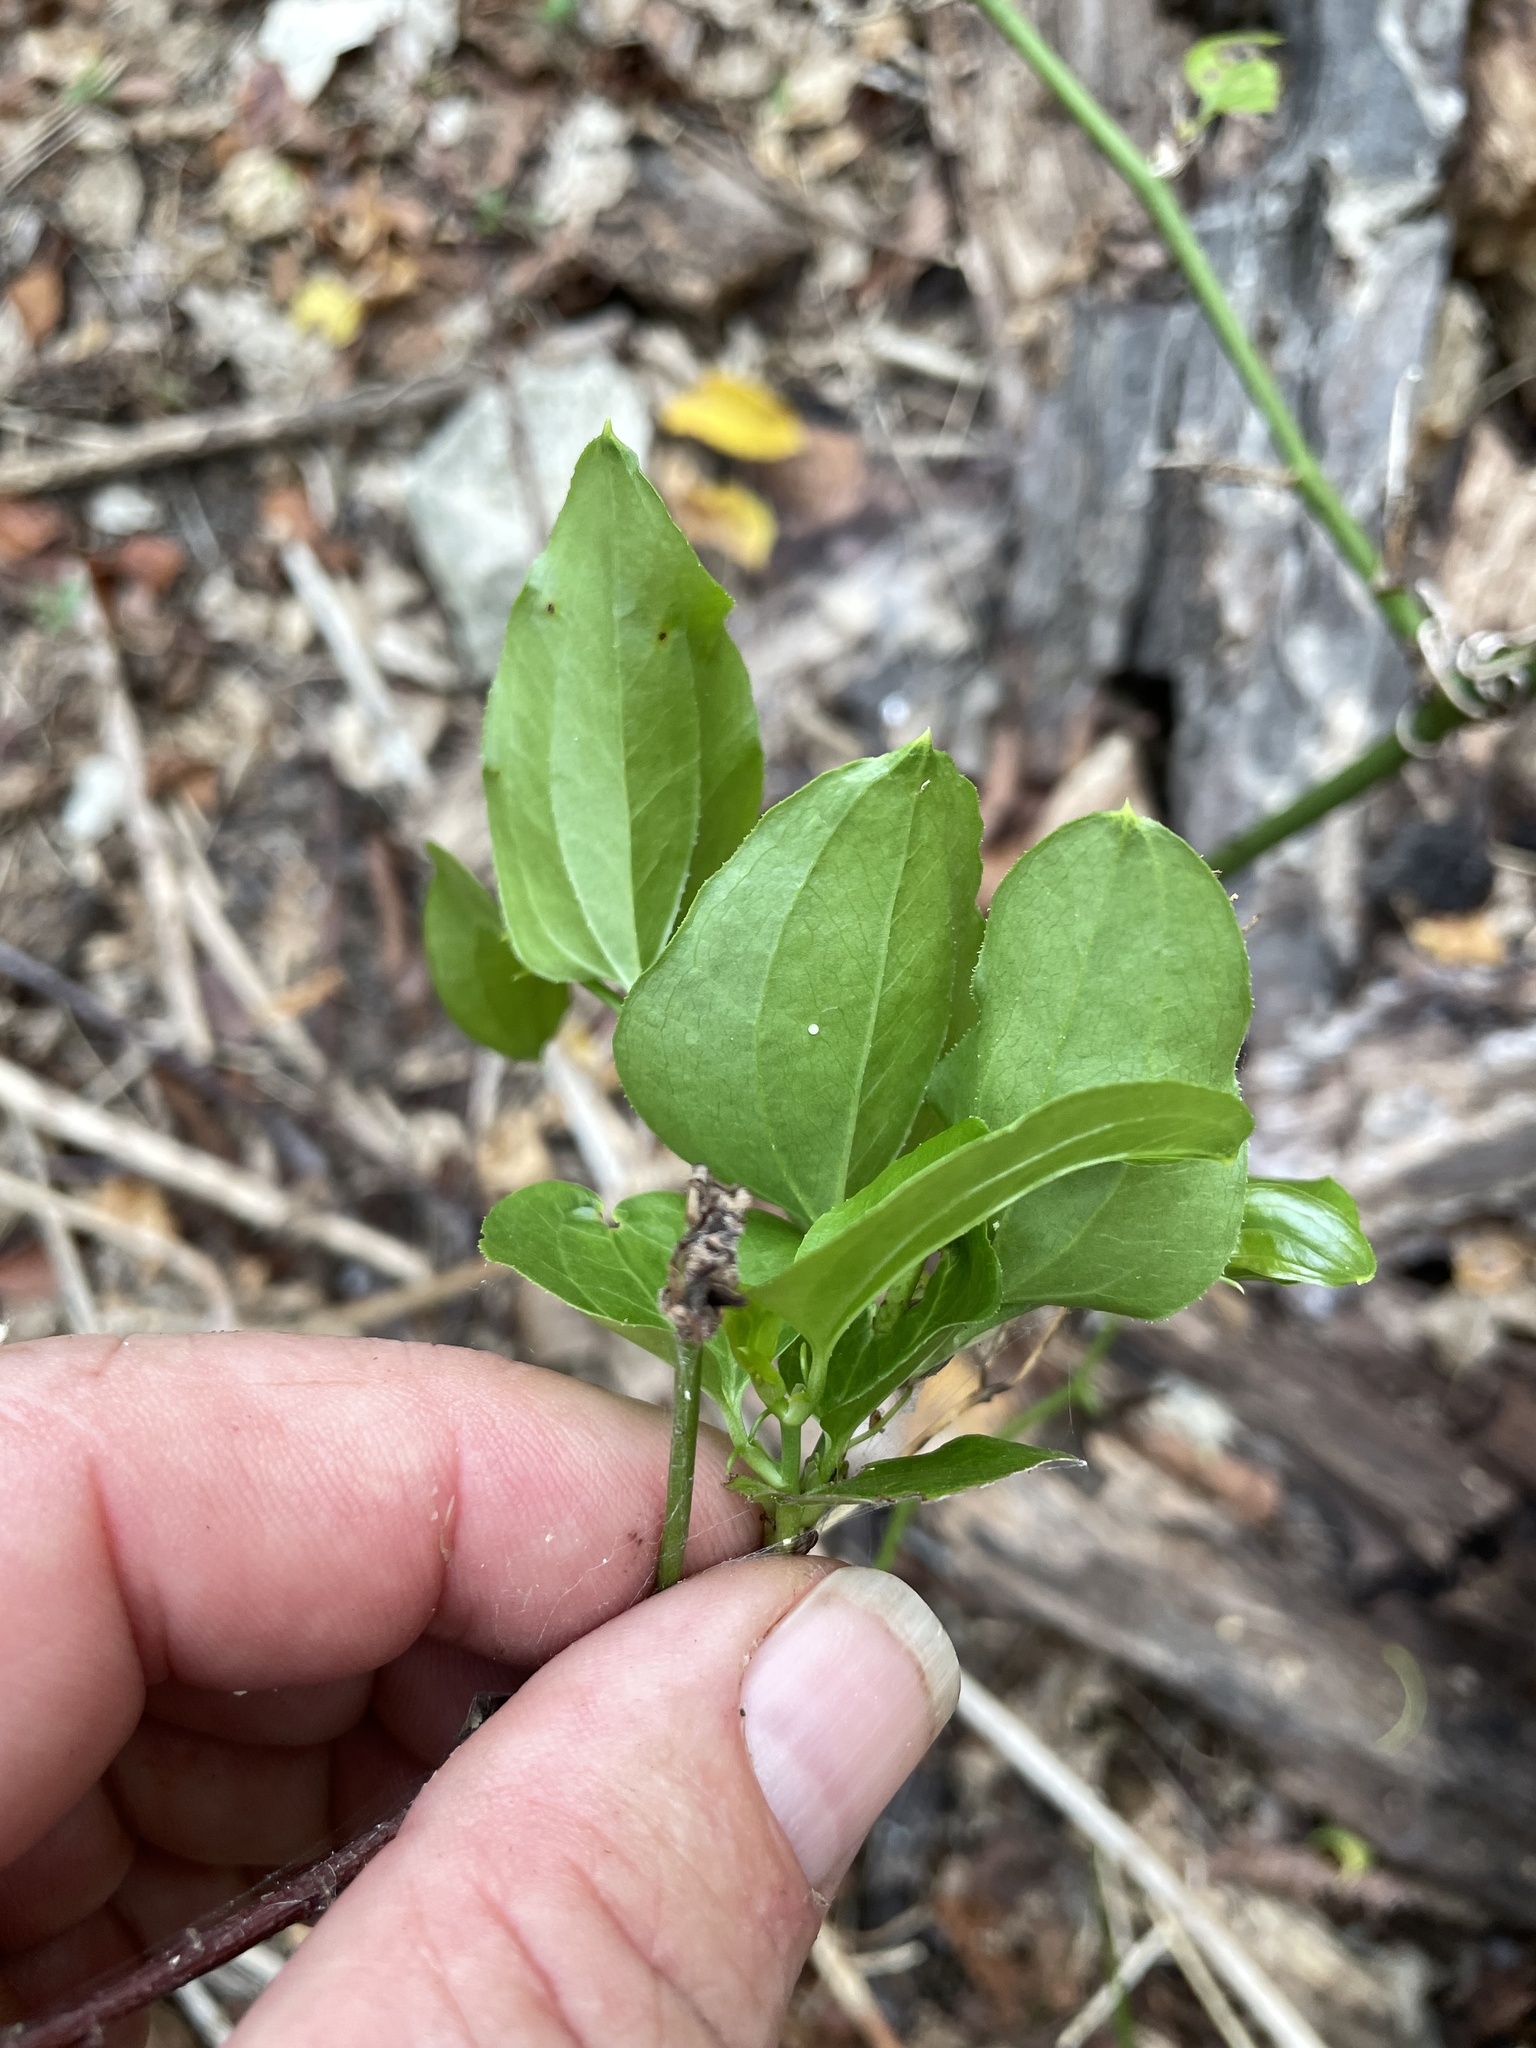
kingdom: Plantae
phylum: Tracheophyta
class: Liliopsida
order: Liliales
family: Smilacaceae
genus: Smilax
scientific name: Smilax tamnoides
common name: Hellfetter
